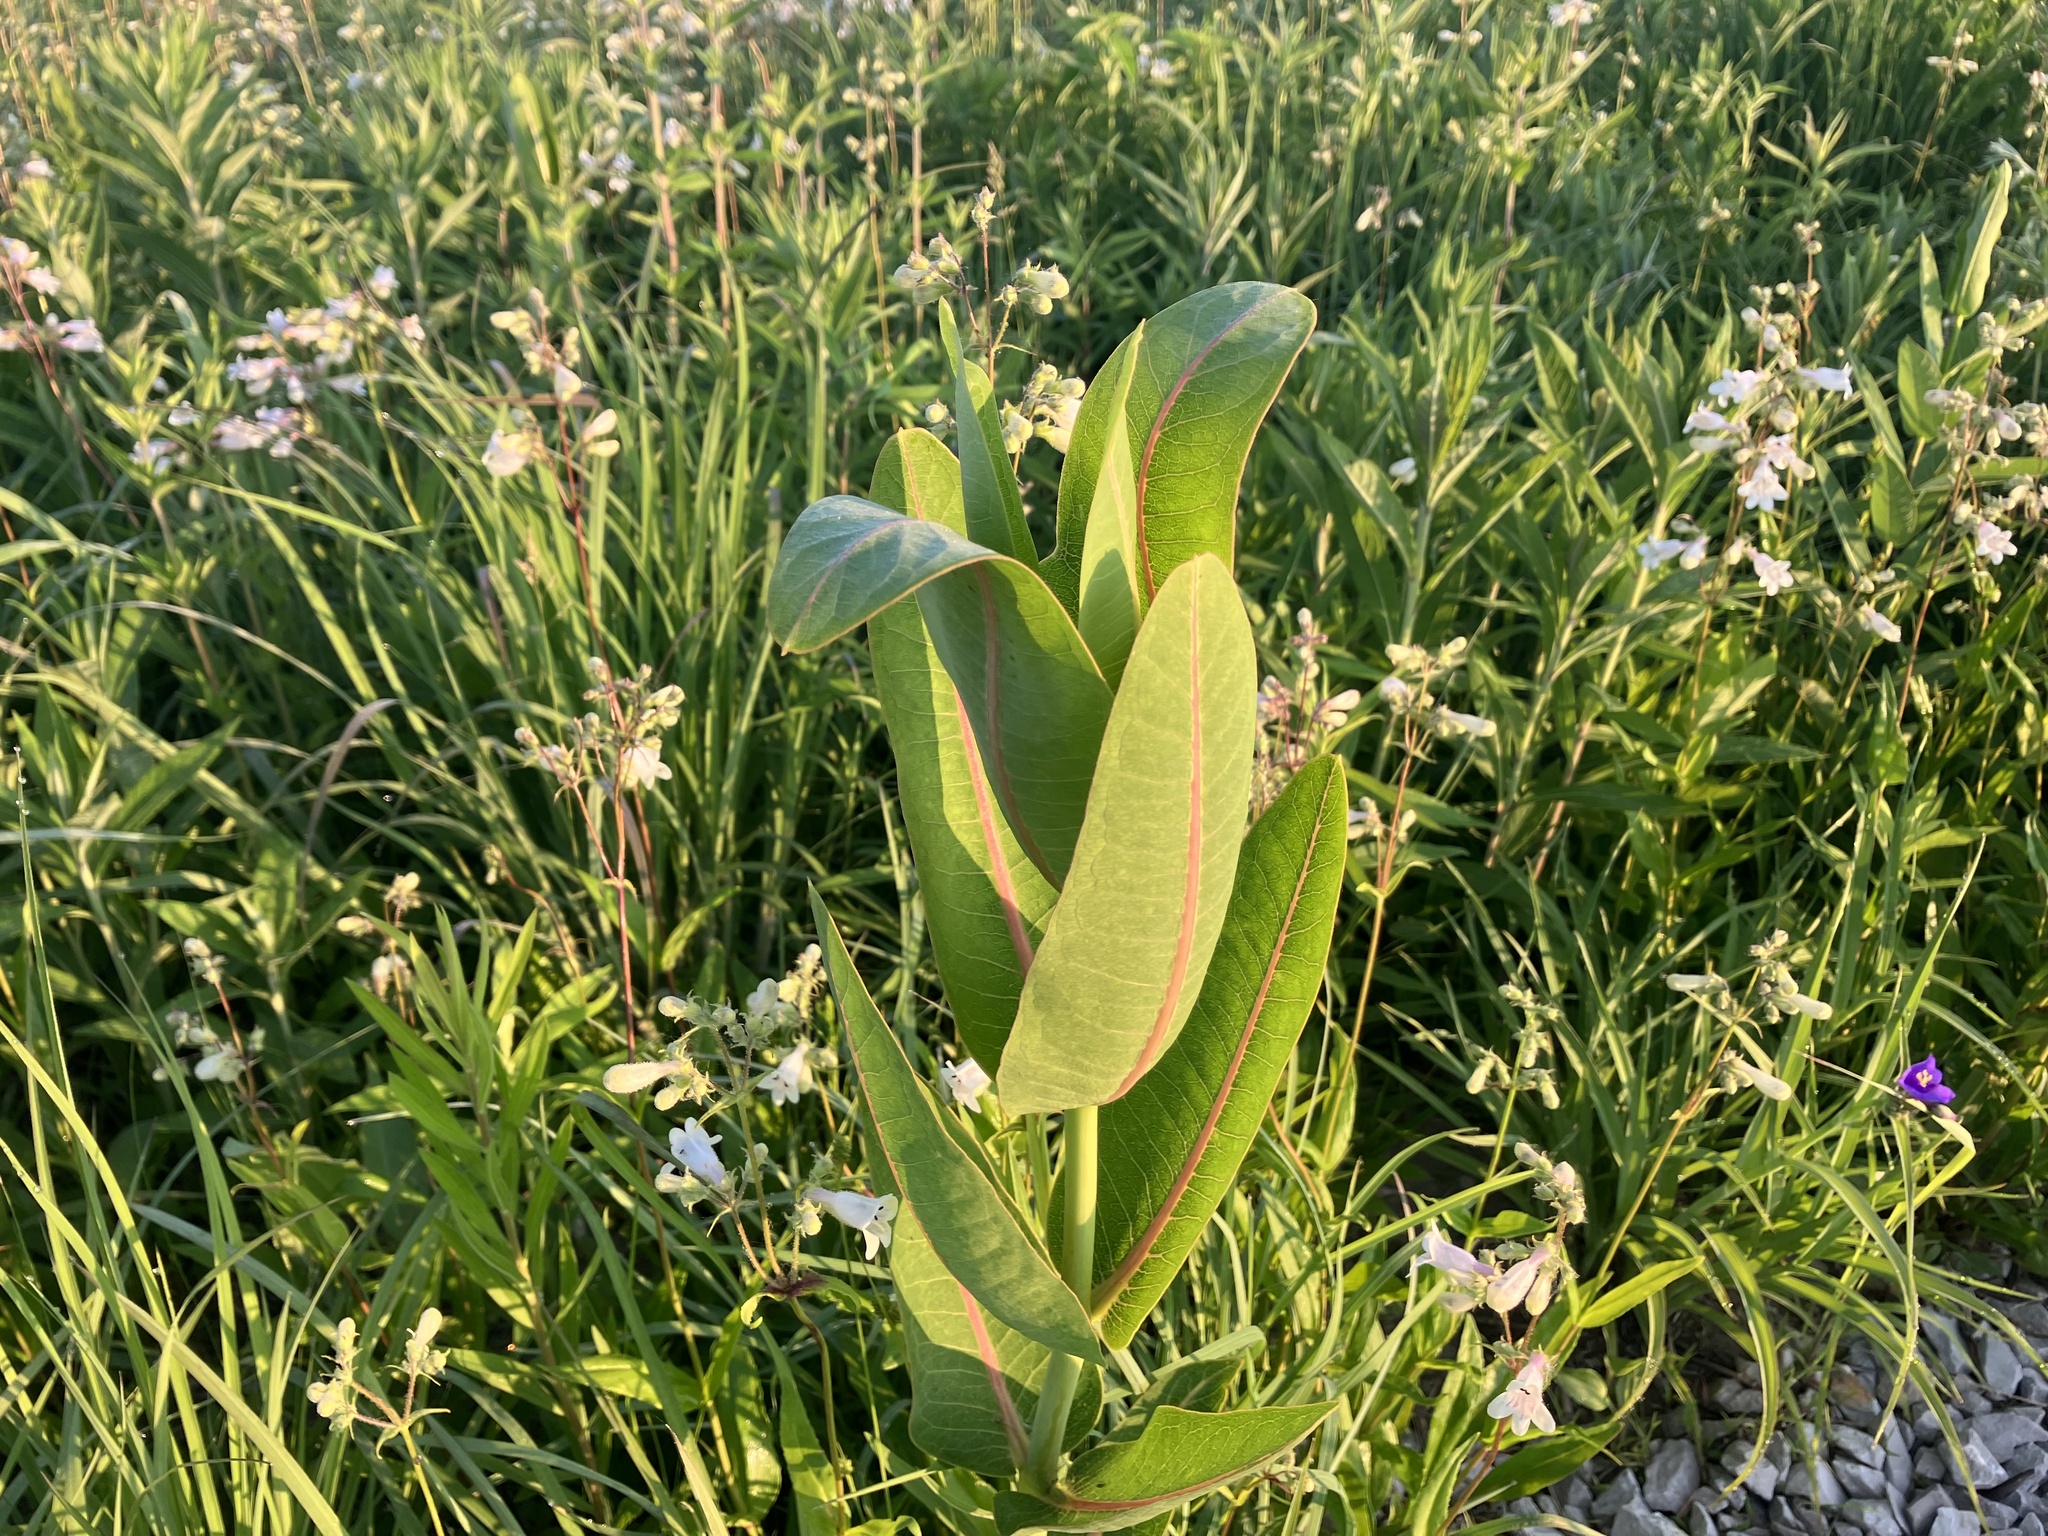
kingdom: Plantae
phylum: Tracheophyta
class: Magnoliopsida
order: Gentianales
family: Apocynaceae
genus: Asclepias
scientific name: Asclepias sullivantii
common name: Prairie milkweed
